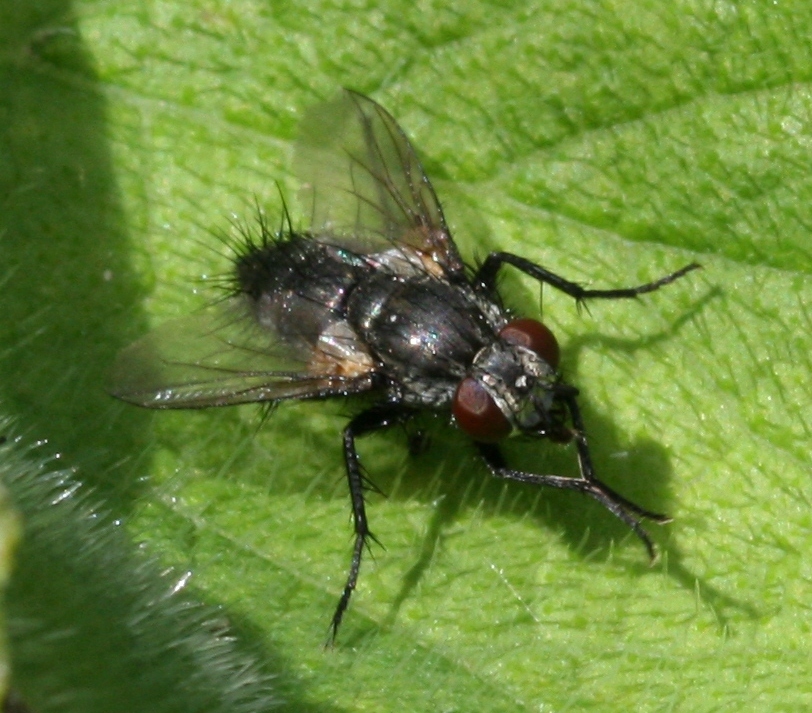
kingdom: Animalia
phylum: Arthropoda
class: Insecta
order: Diptera
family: Tachinidae
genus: Voria
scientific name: Voria ruralis
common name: Parasitic fly
